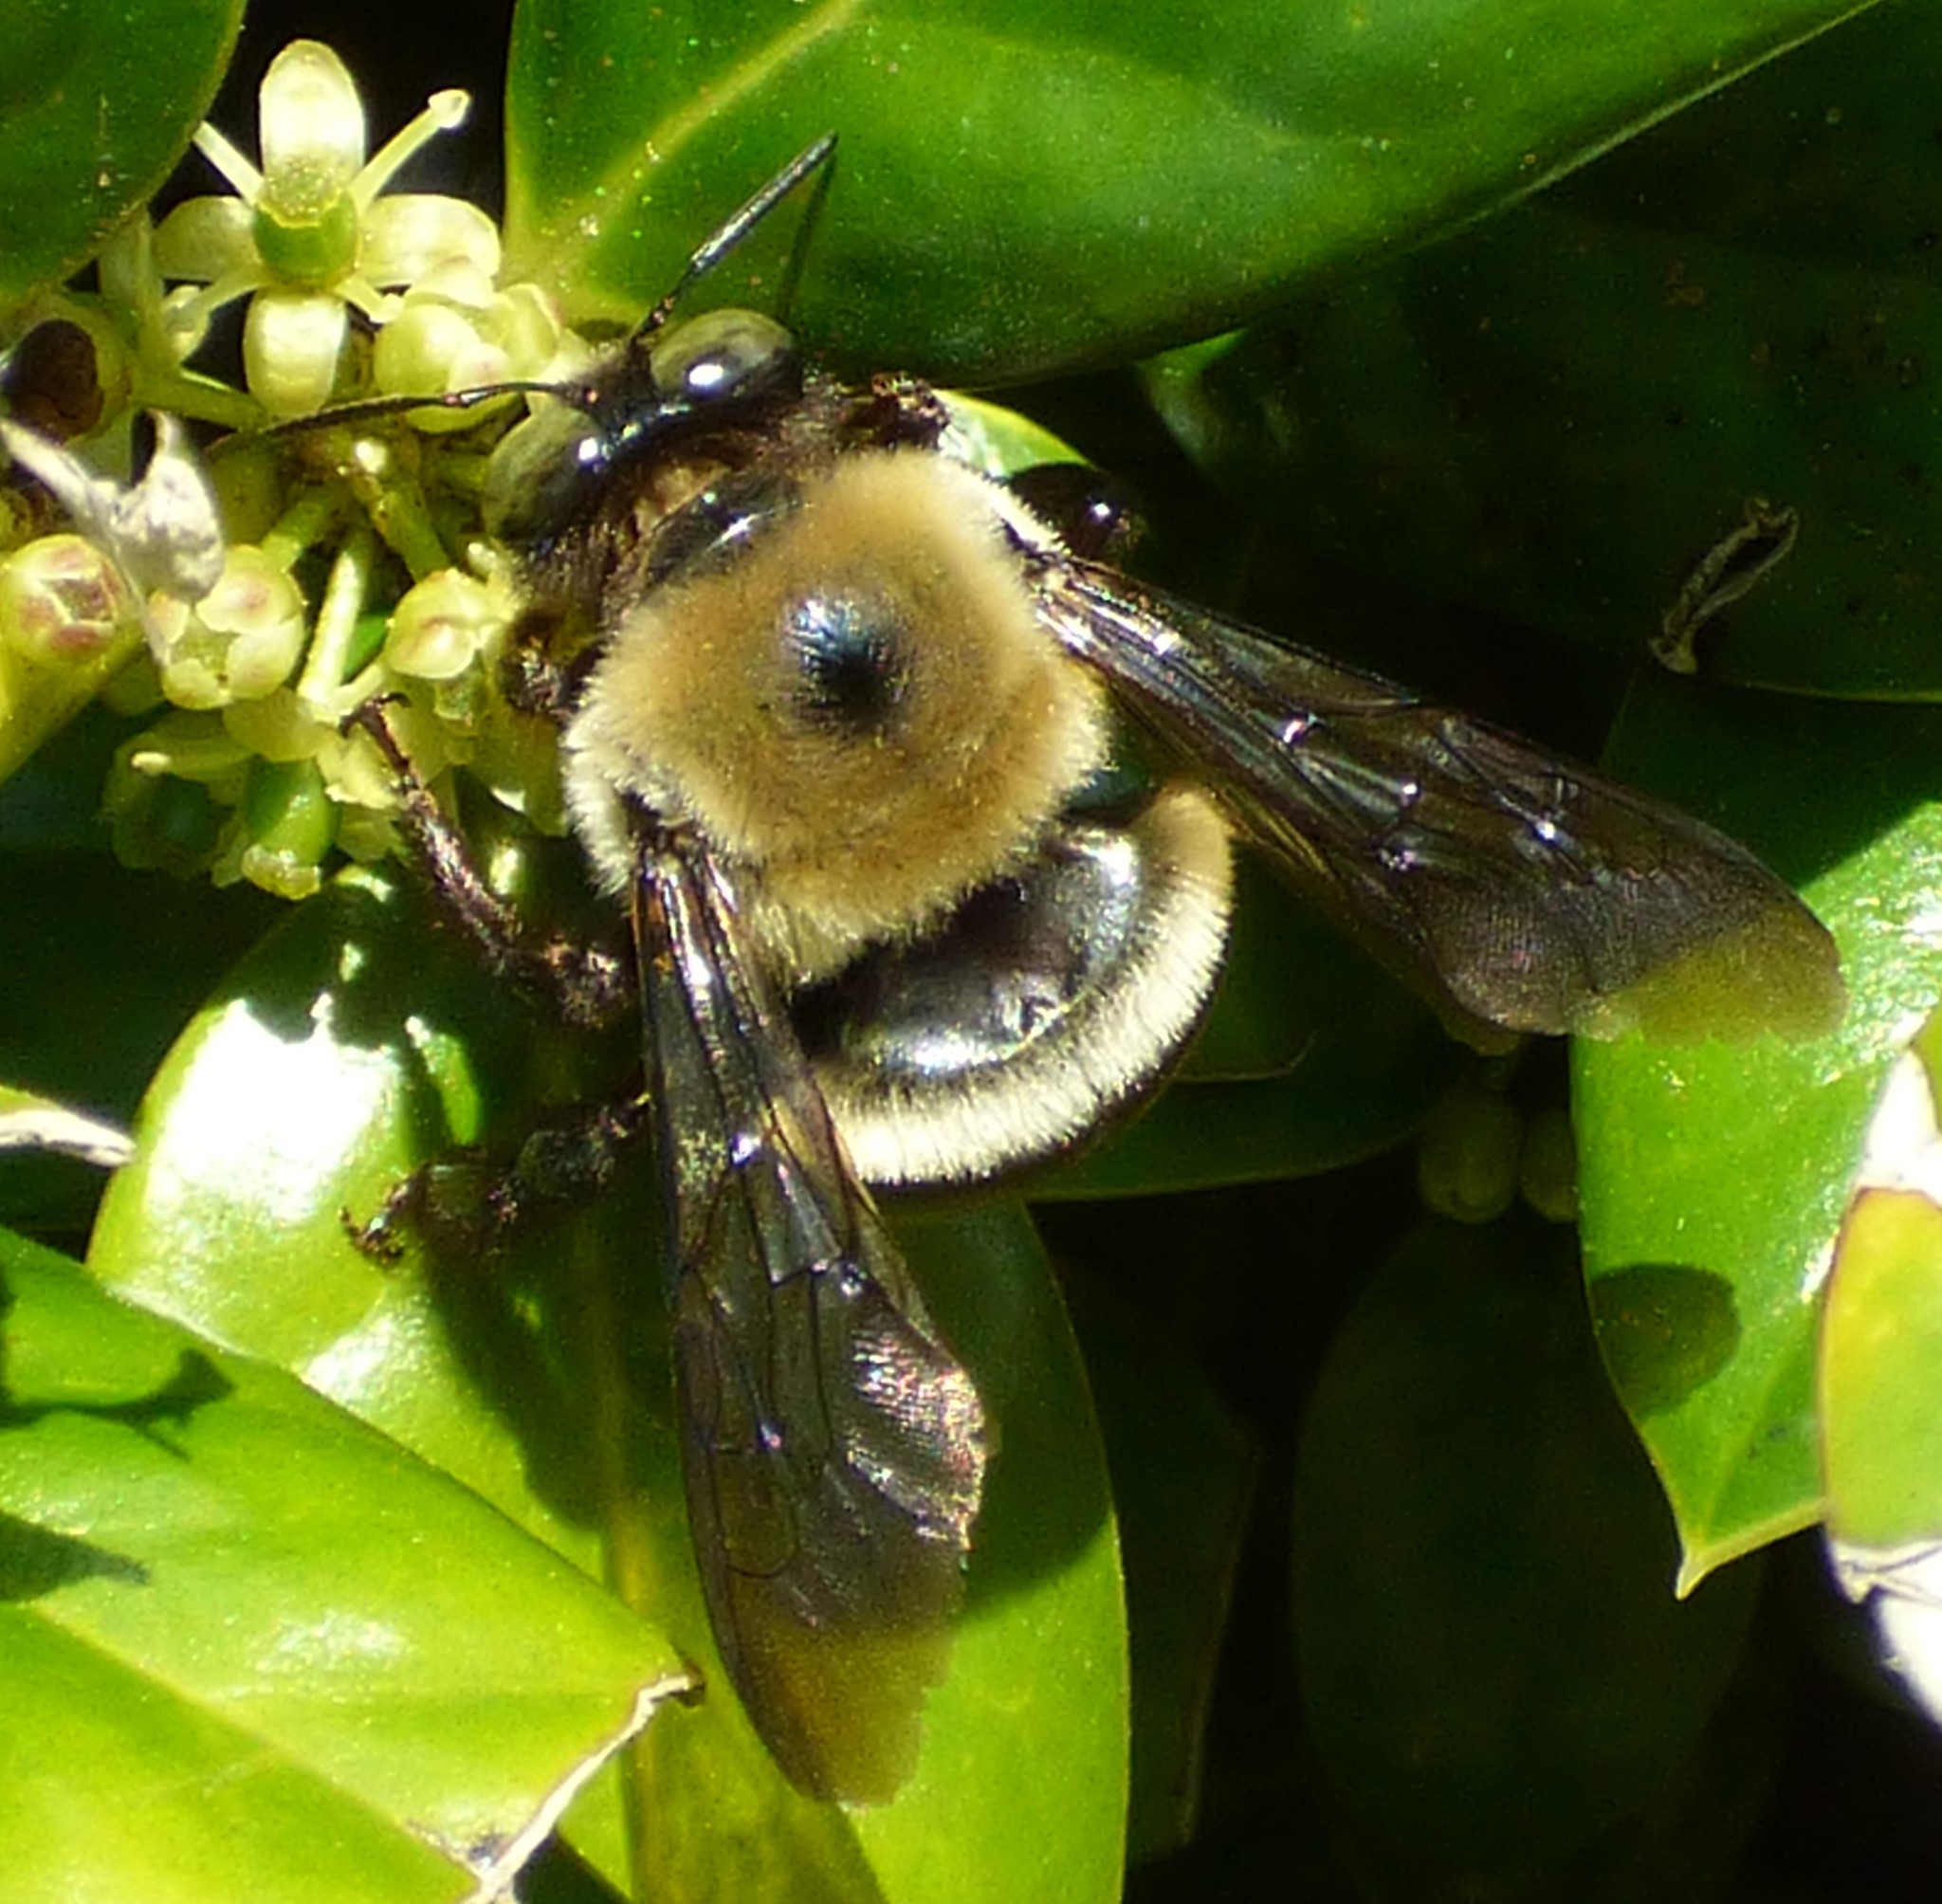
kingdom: Animalia
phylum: Arthropoda
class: Insecta
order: Hymenoptera
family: Apidae
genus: Xylocopa
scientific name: Xylocopa virginica
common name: Carpenter bee
